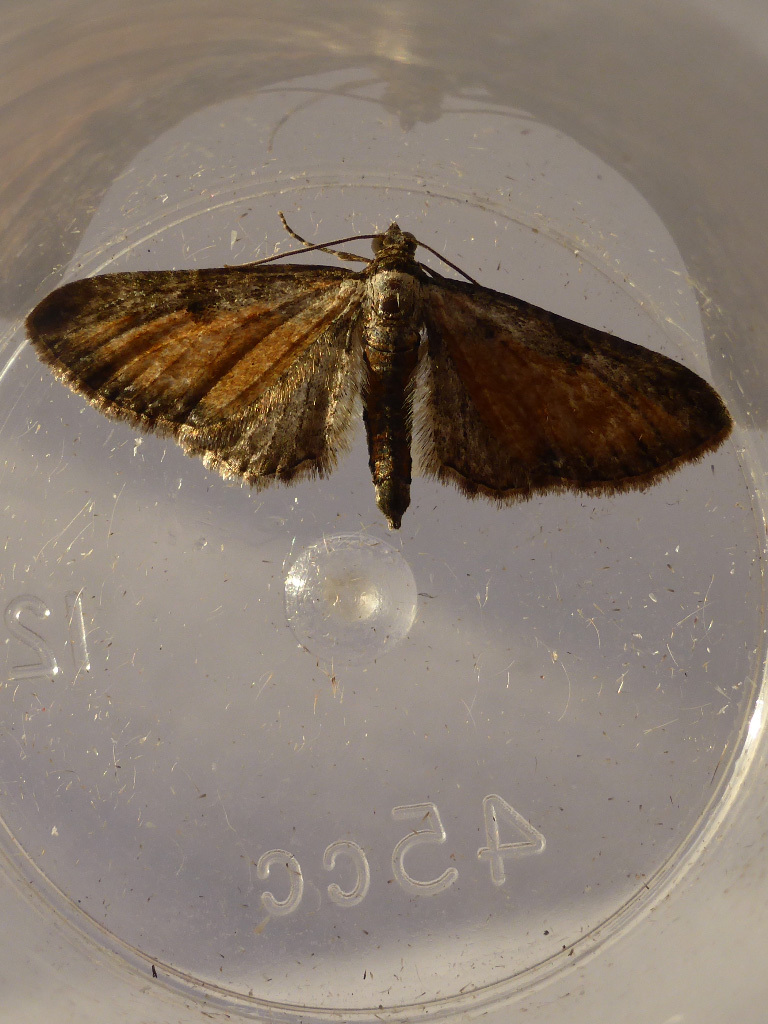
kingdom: Animalia
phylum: Arthropoda
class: Insecta
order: Lepidoptera
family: Geometridae
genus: Eupithecia
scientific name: Eupithecia icterata
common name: Tawny speckled pug
